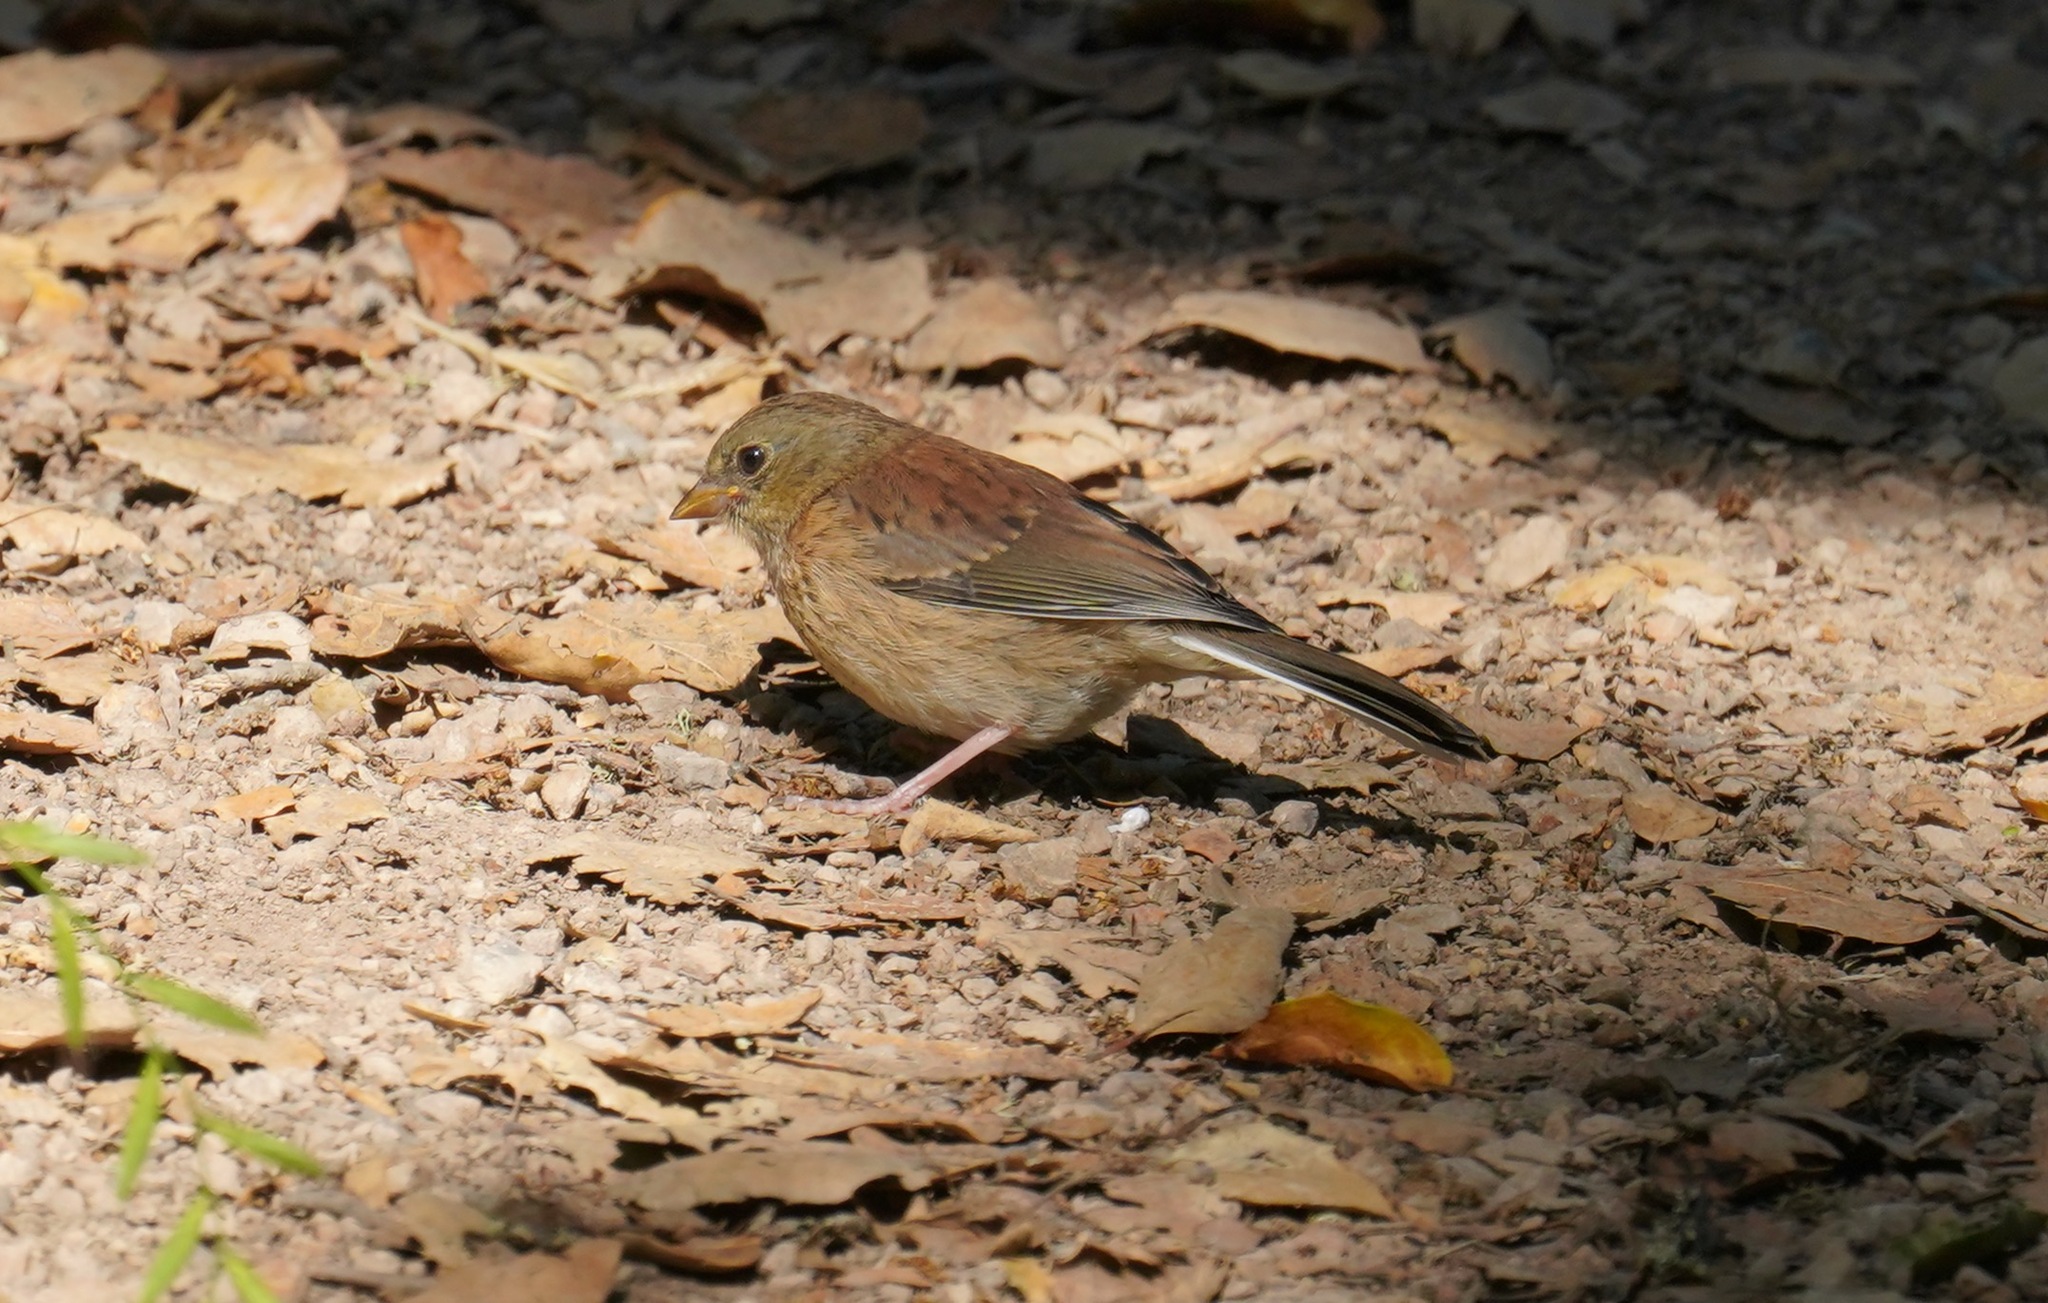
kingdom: Animalia
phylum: Chordata
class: Aves
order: Passeriformes
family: Passerellidae
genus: Junco
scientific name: Junco hyemalis
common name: Dark-eyed junco
